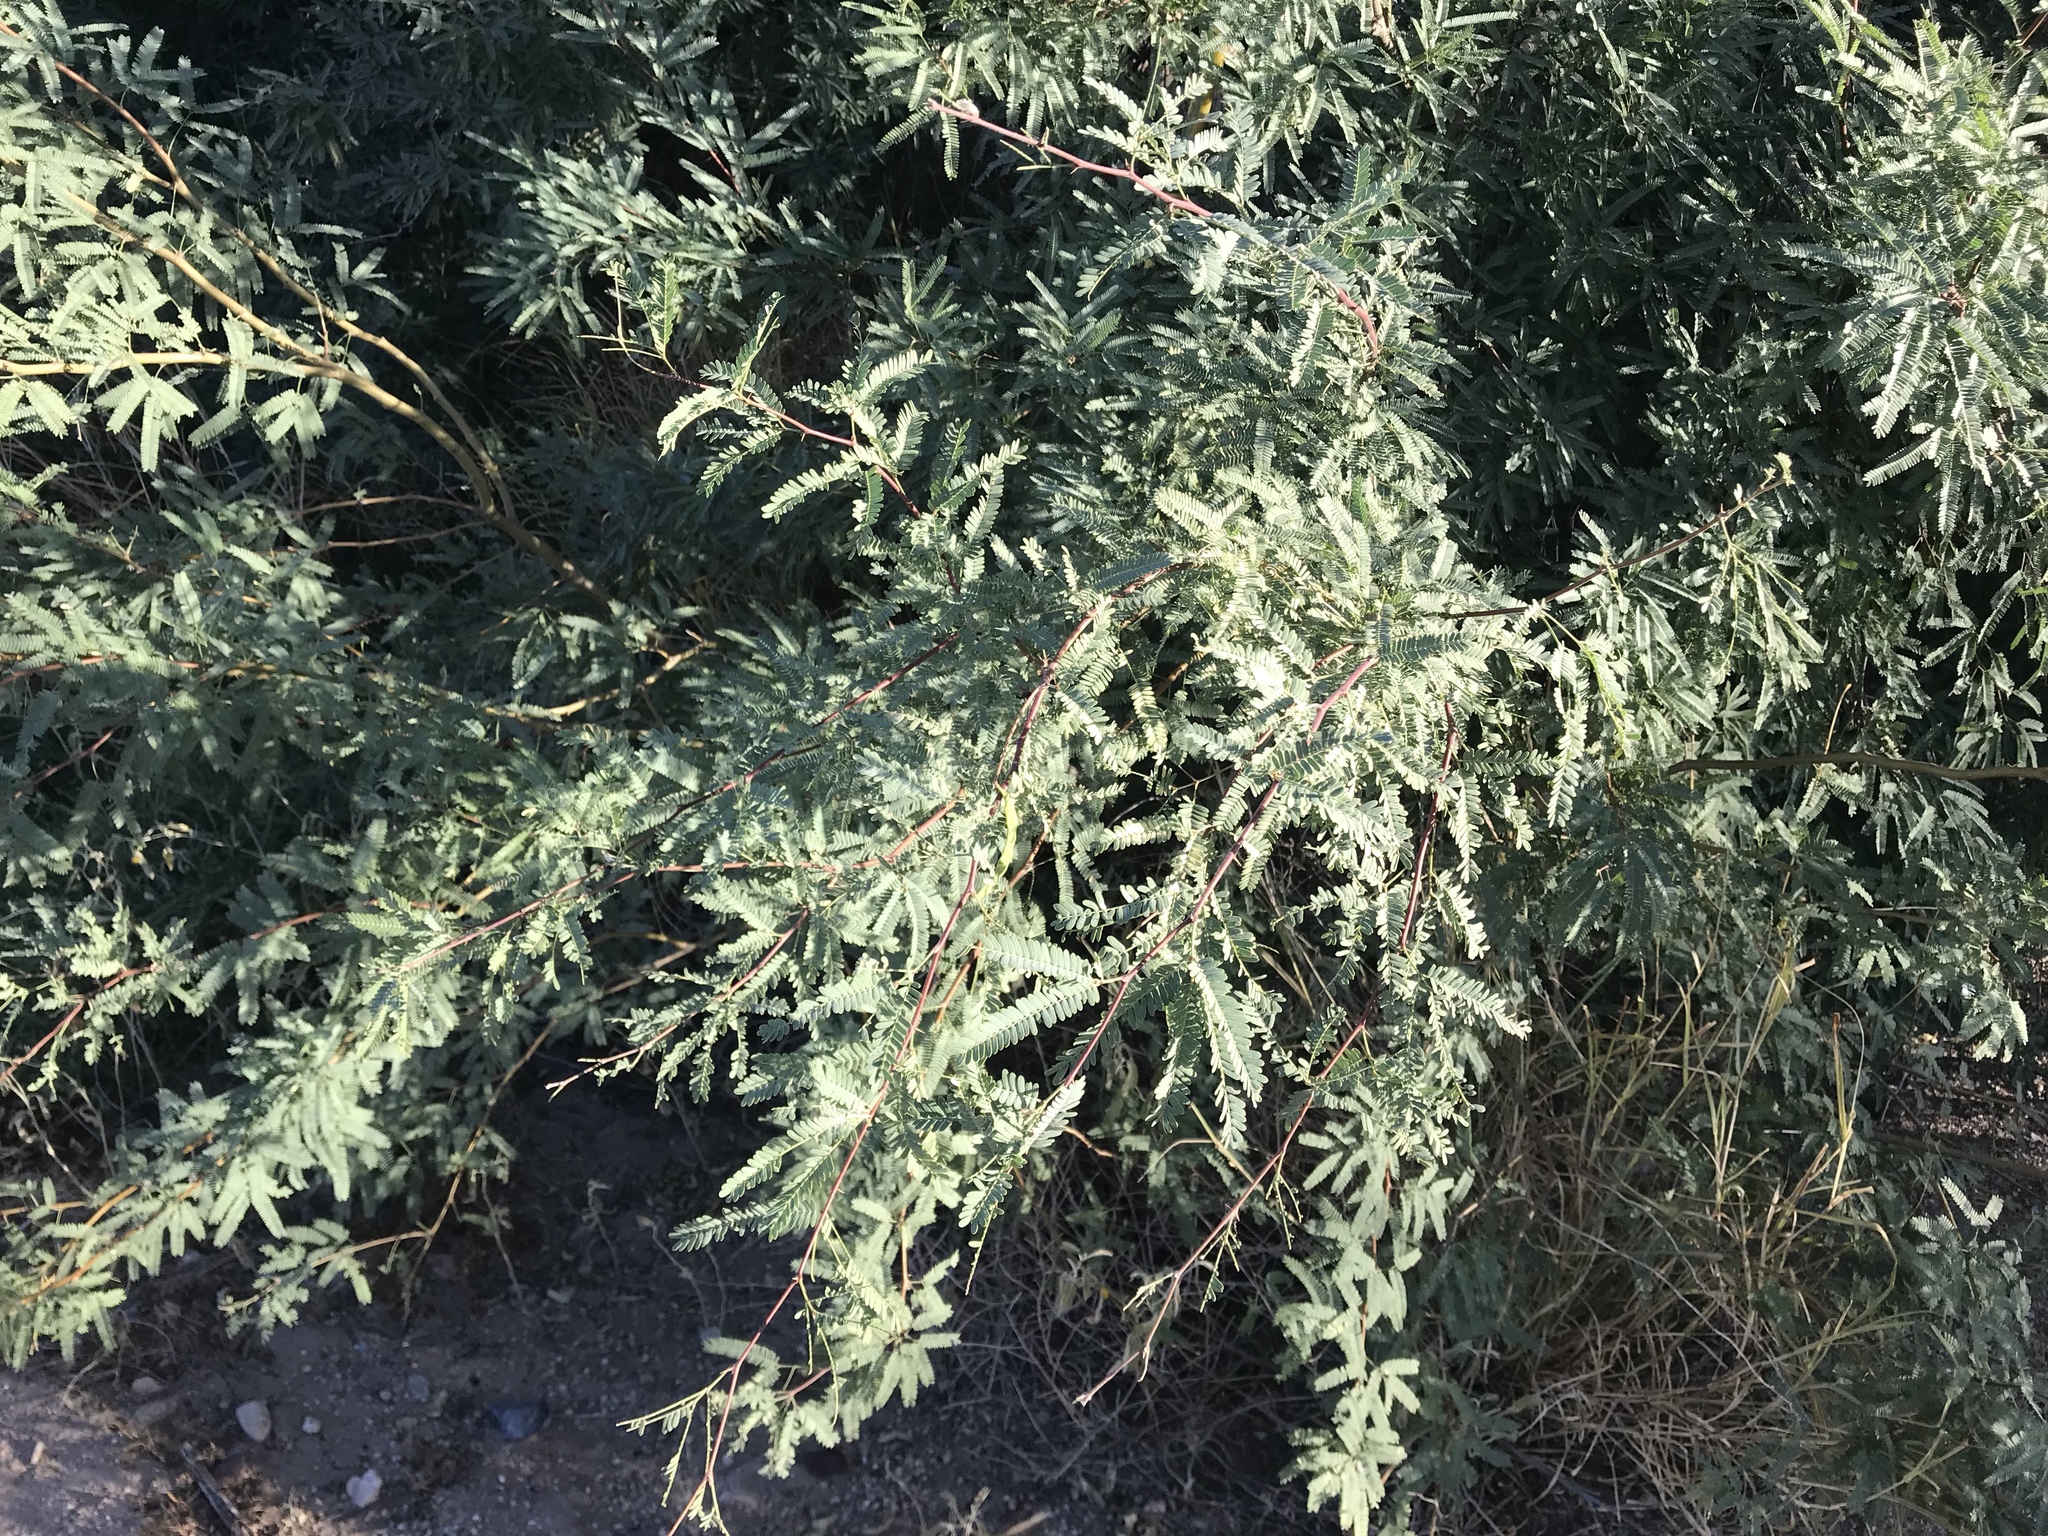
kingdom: Plantae
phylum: Tracheophyta
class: Magnoliopsida
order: Fabales
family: Fabaceae
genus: Prosopis
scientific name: Prosopis velutina
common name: Velvet mesquite
